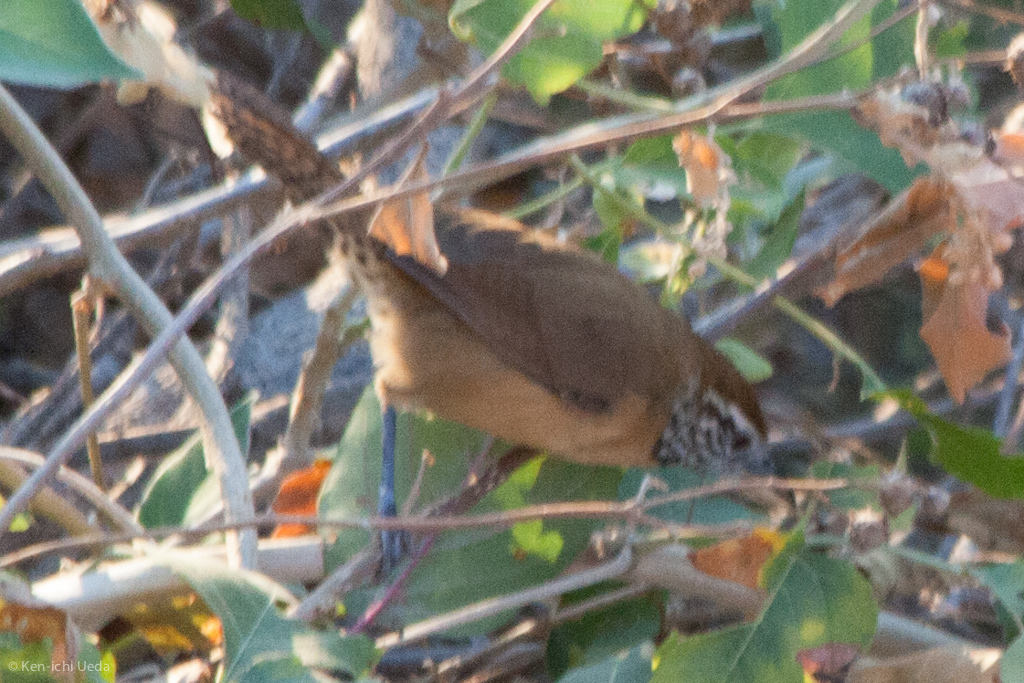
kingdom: Animalia
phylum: Chordata
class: Aves
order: Passeriformes
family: Troglodytidae
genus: Pheugopedius
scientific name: Pheugopedius felix
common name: Happy wren
